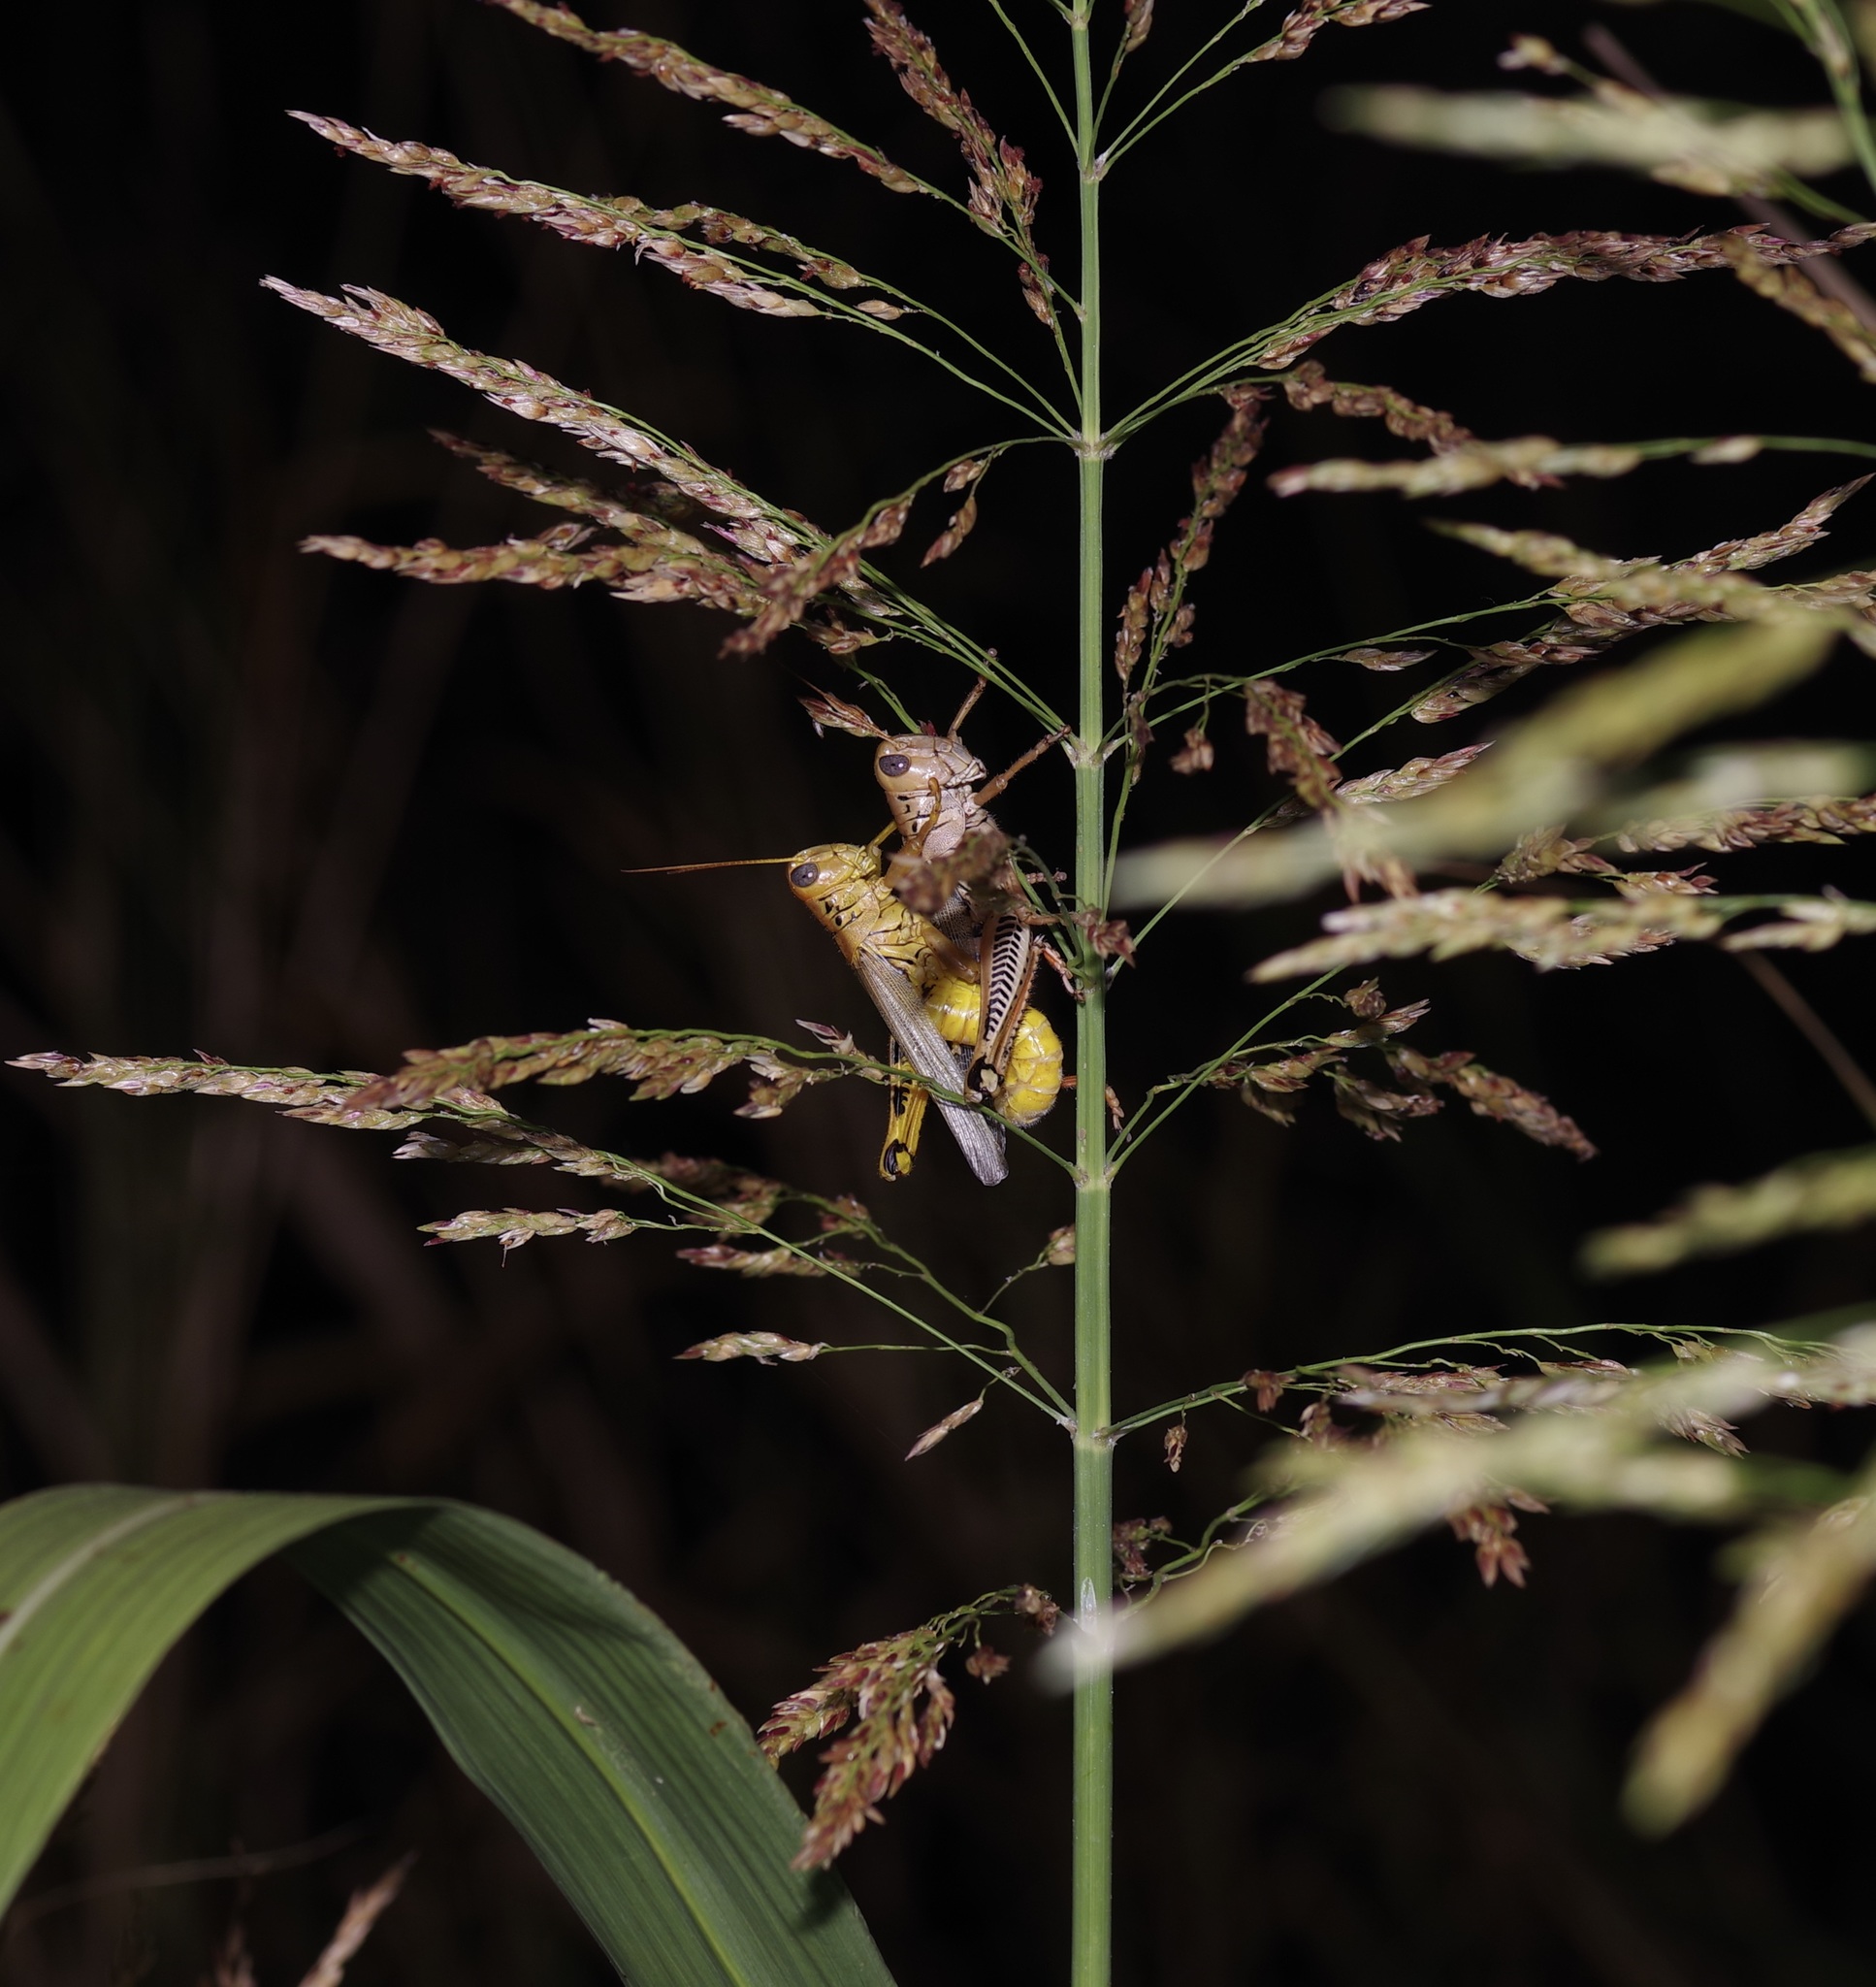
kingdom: Animalia
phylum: Arthropoda
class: Insecta
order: Orthoptera
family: Acrididae
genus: Melanoplus
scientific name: Melanoplus differentialis
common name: Differential grasshopper
